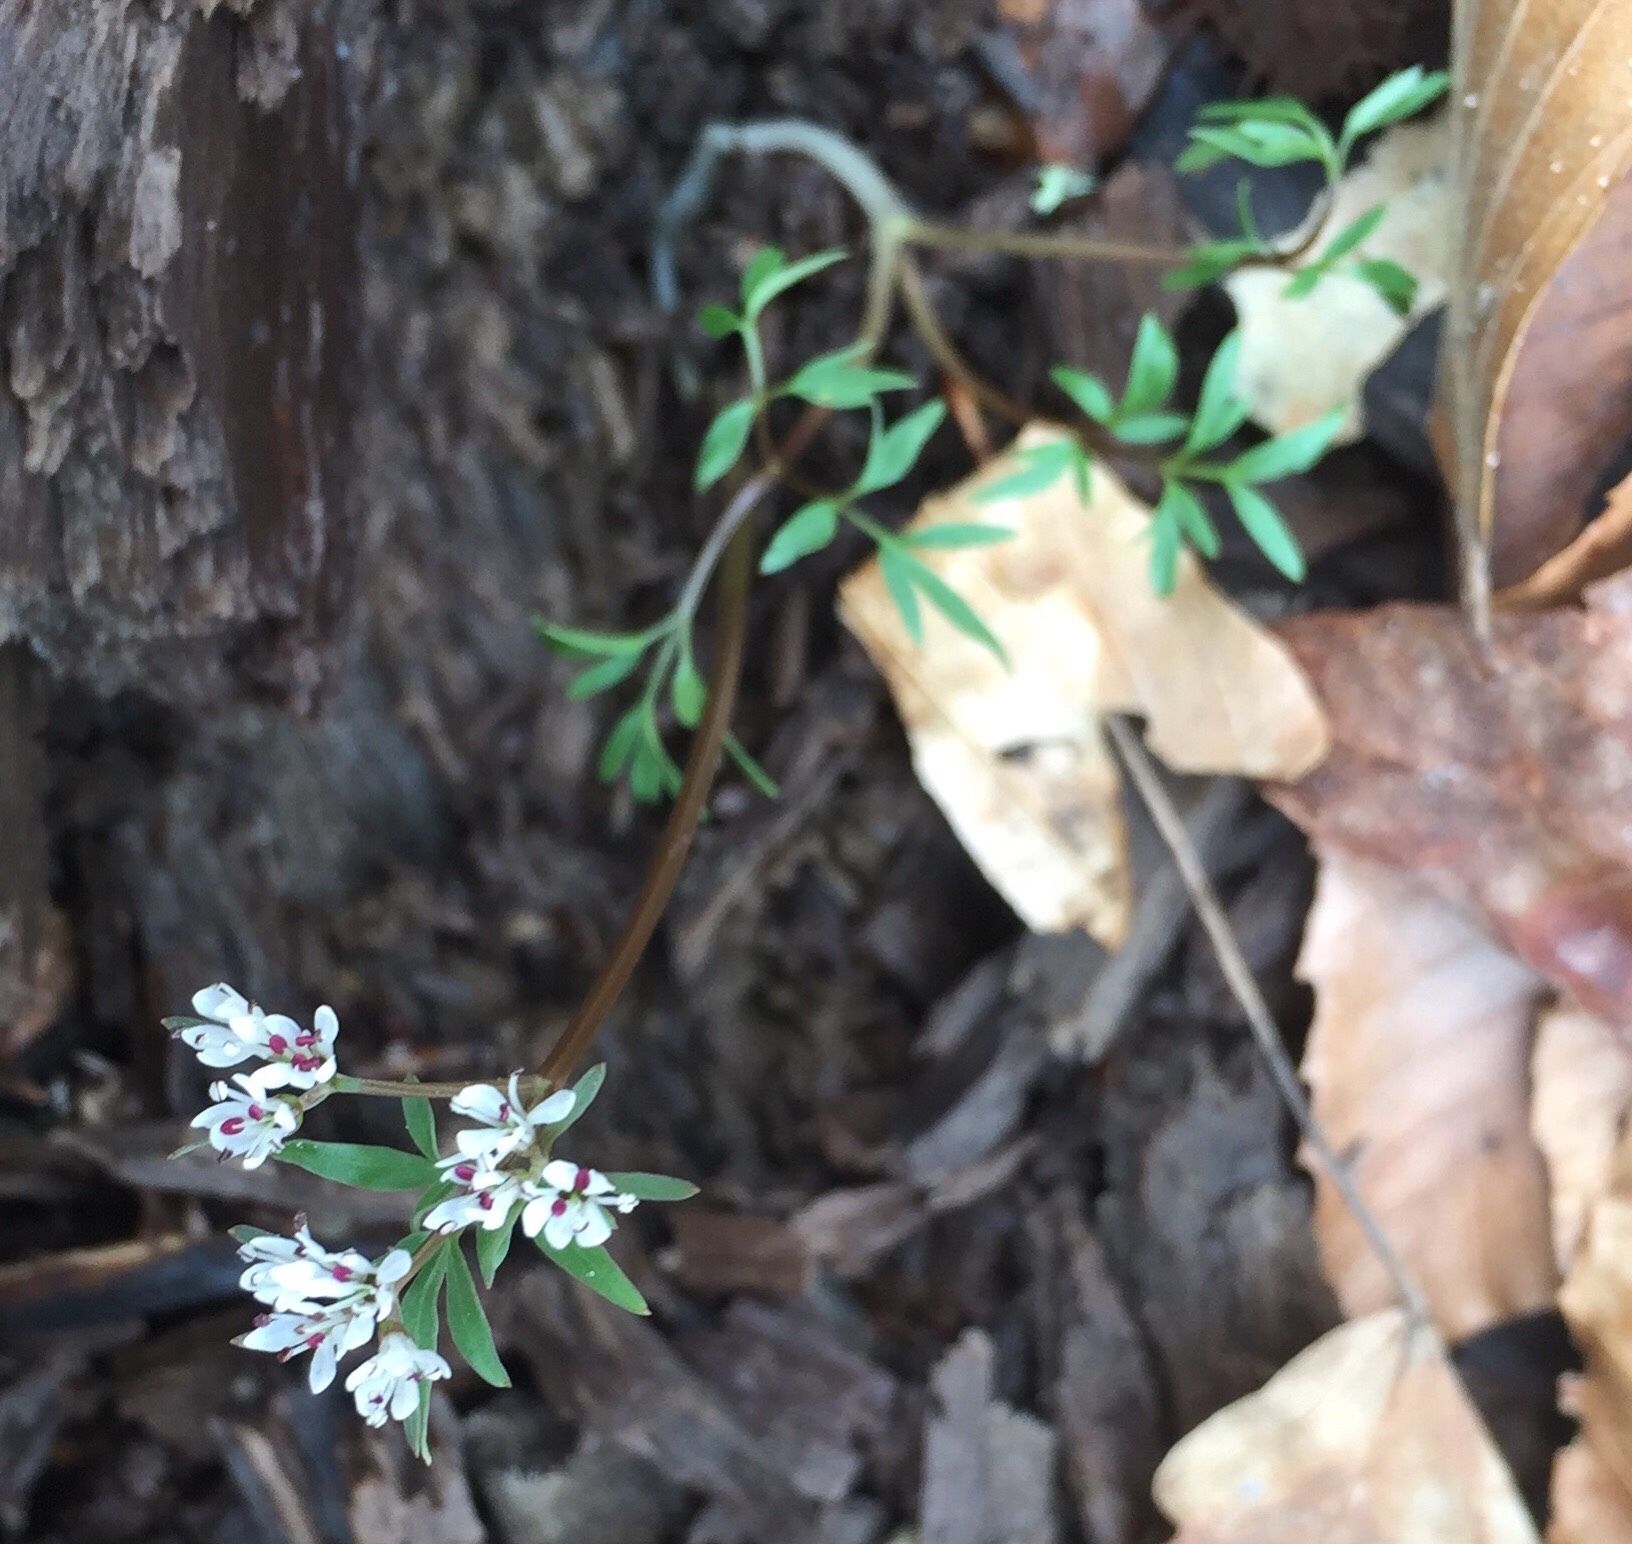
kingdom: Plantae
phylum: Tracheophyta
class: Magnoliopsida
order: Apiales
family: Apiaceae
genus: Erigenia
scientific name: Erigenia bulbosa
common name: Pepper-and-salt
